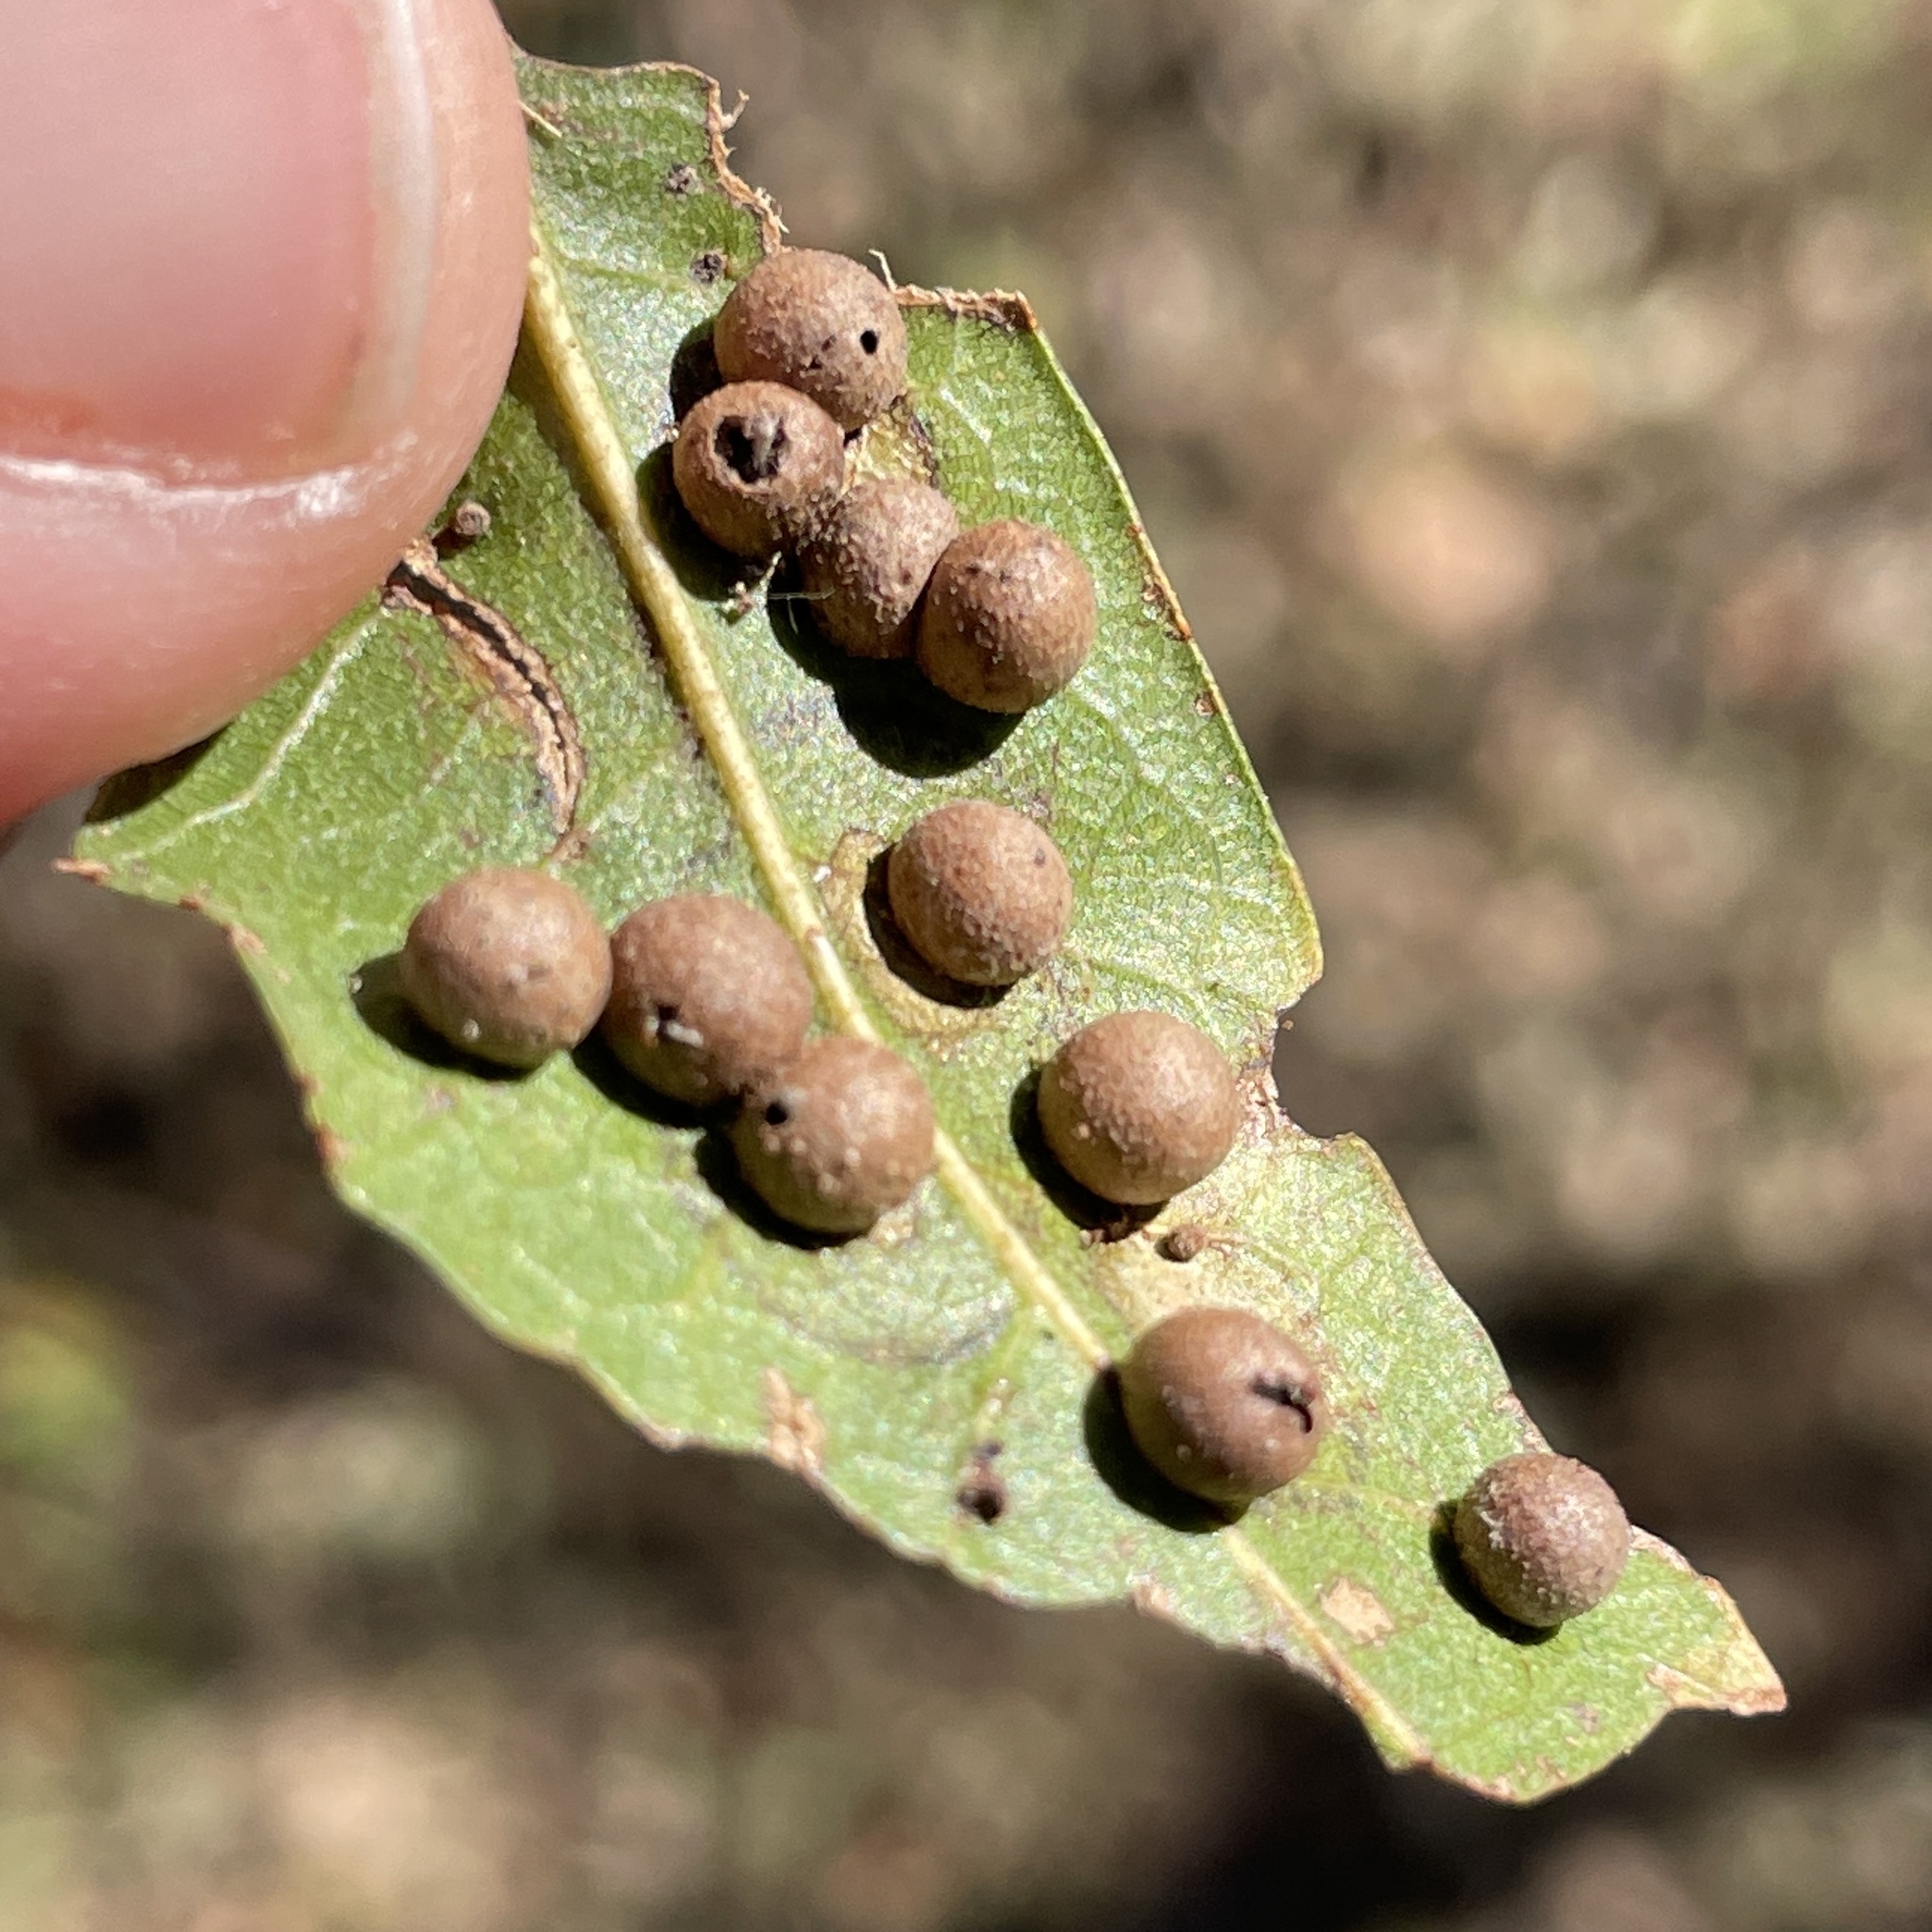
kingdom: Animalia
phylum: Arthropoda
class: Insecta
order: Hymenoptera
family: Cynipidae
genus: Belonocnema
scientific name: Belonocnema kinseyi
